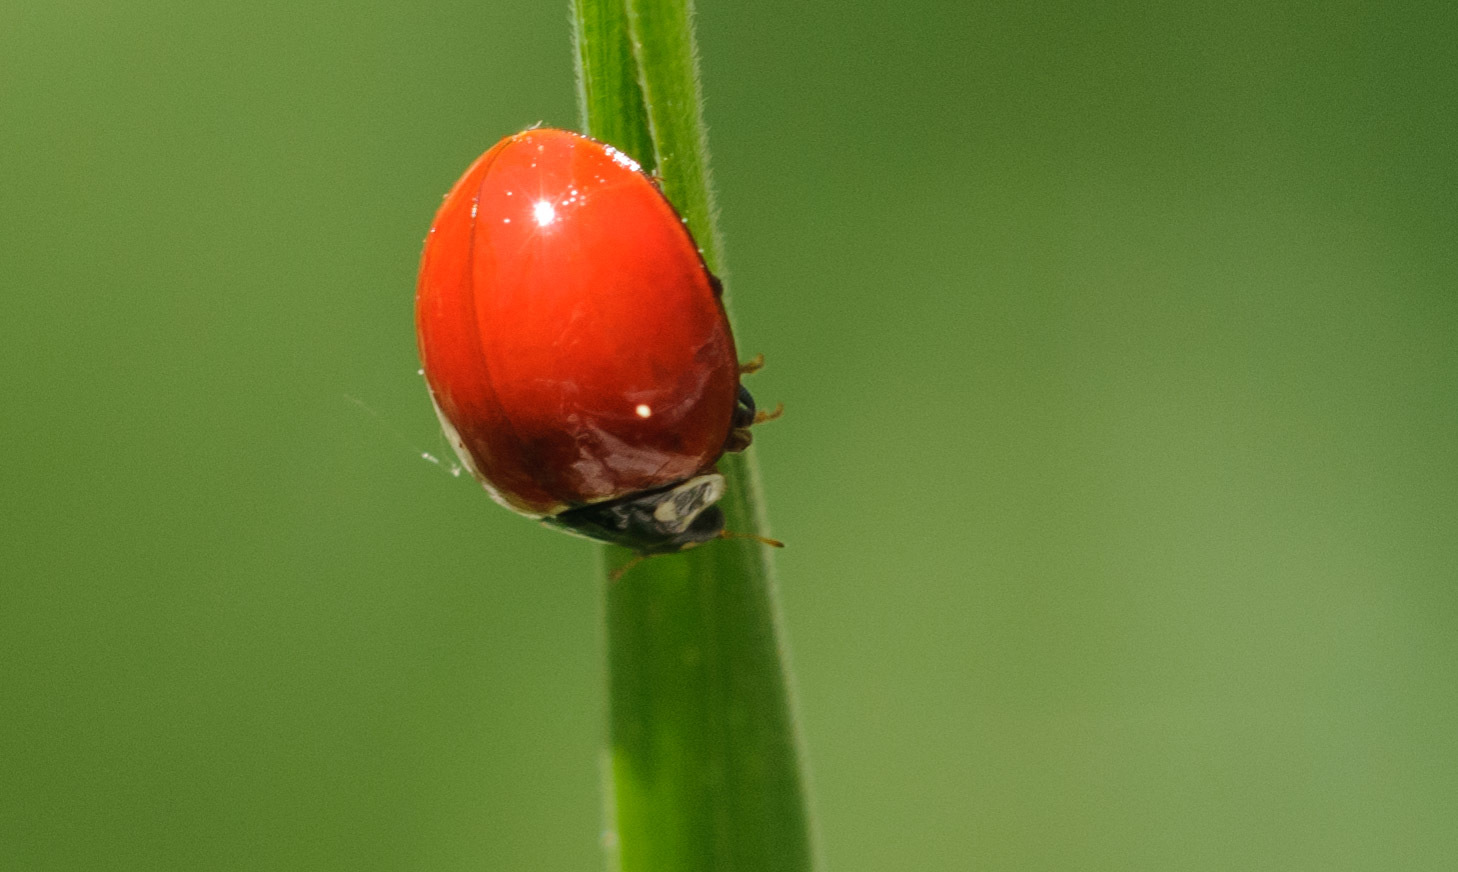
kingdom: Animalia
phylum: Arthropoda
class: Insecta
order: Coleoptera
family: Coccinellidae
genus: Cycloneda
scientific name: Cycloneda sanguinea
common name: Ladybird beetle
